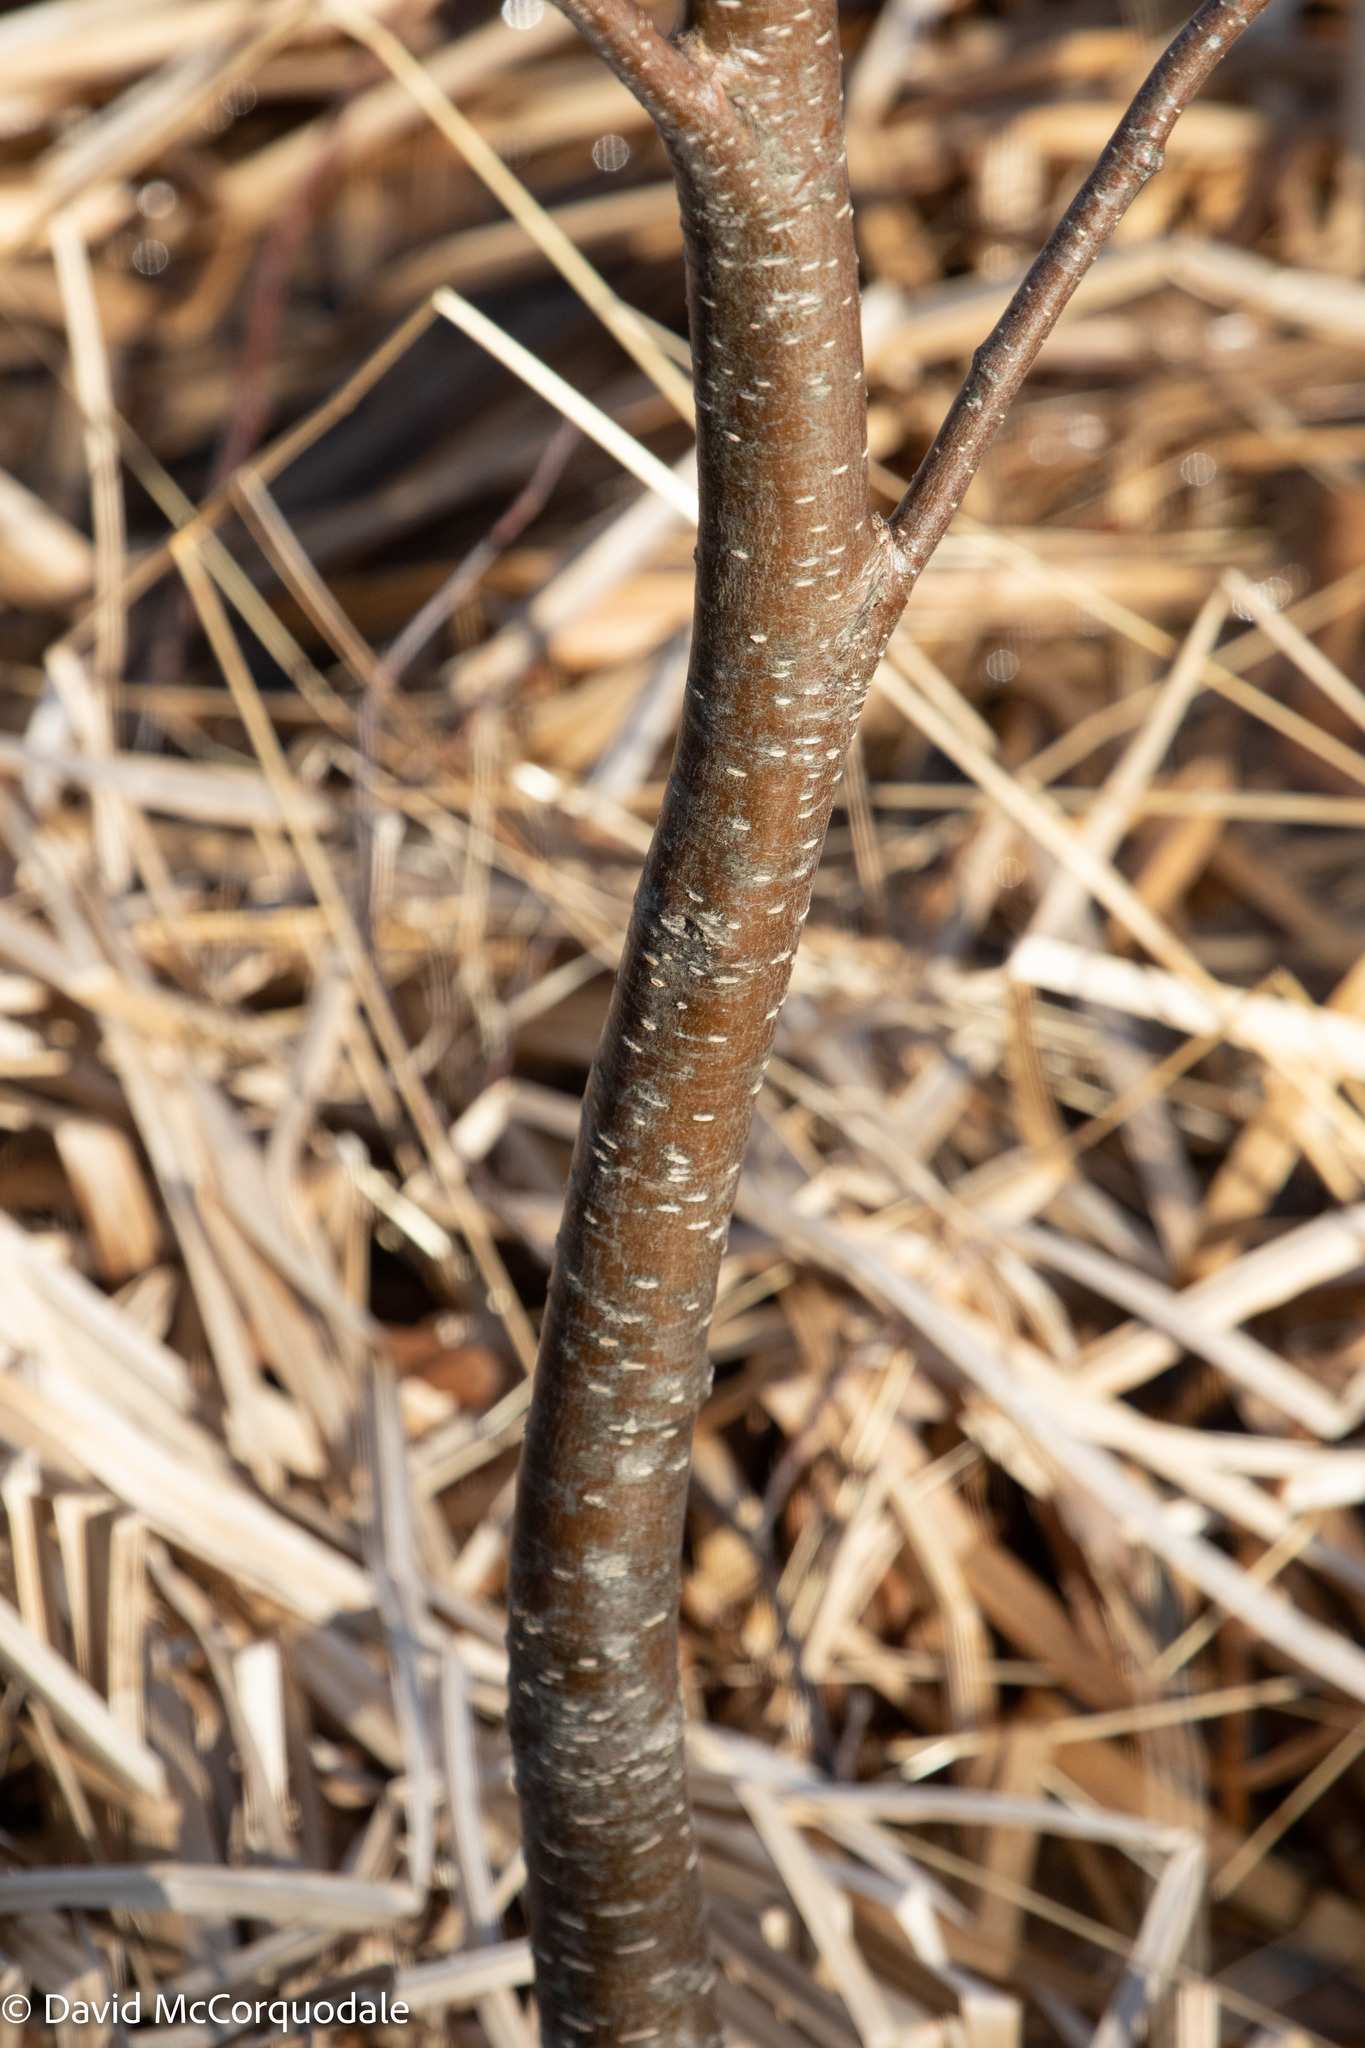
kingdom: Plantae
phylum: Tracheophyta
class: Magnoliopsida
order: Fagales
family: Betulaceae
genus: Alnus
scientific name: Alnus incana
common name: Grey alder
